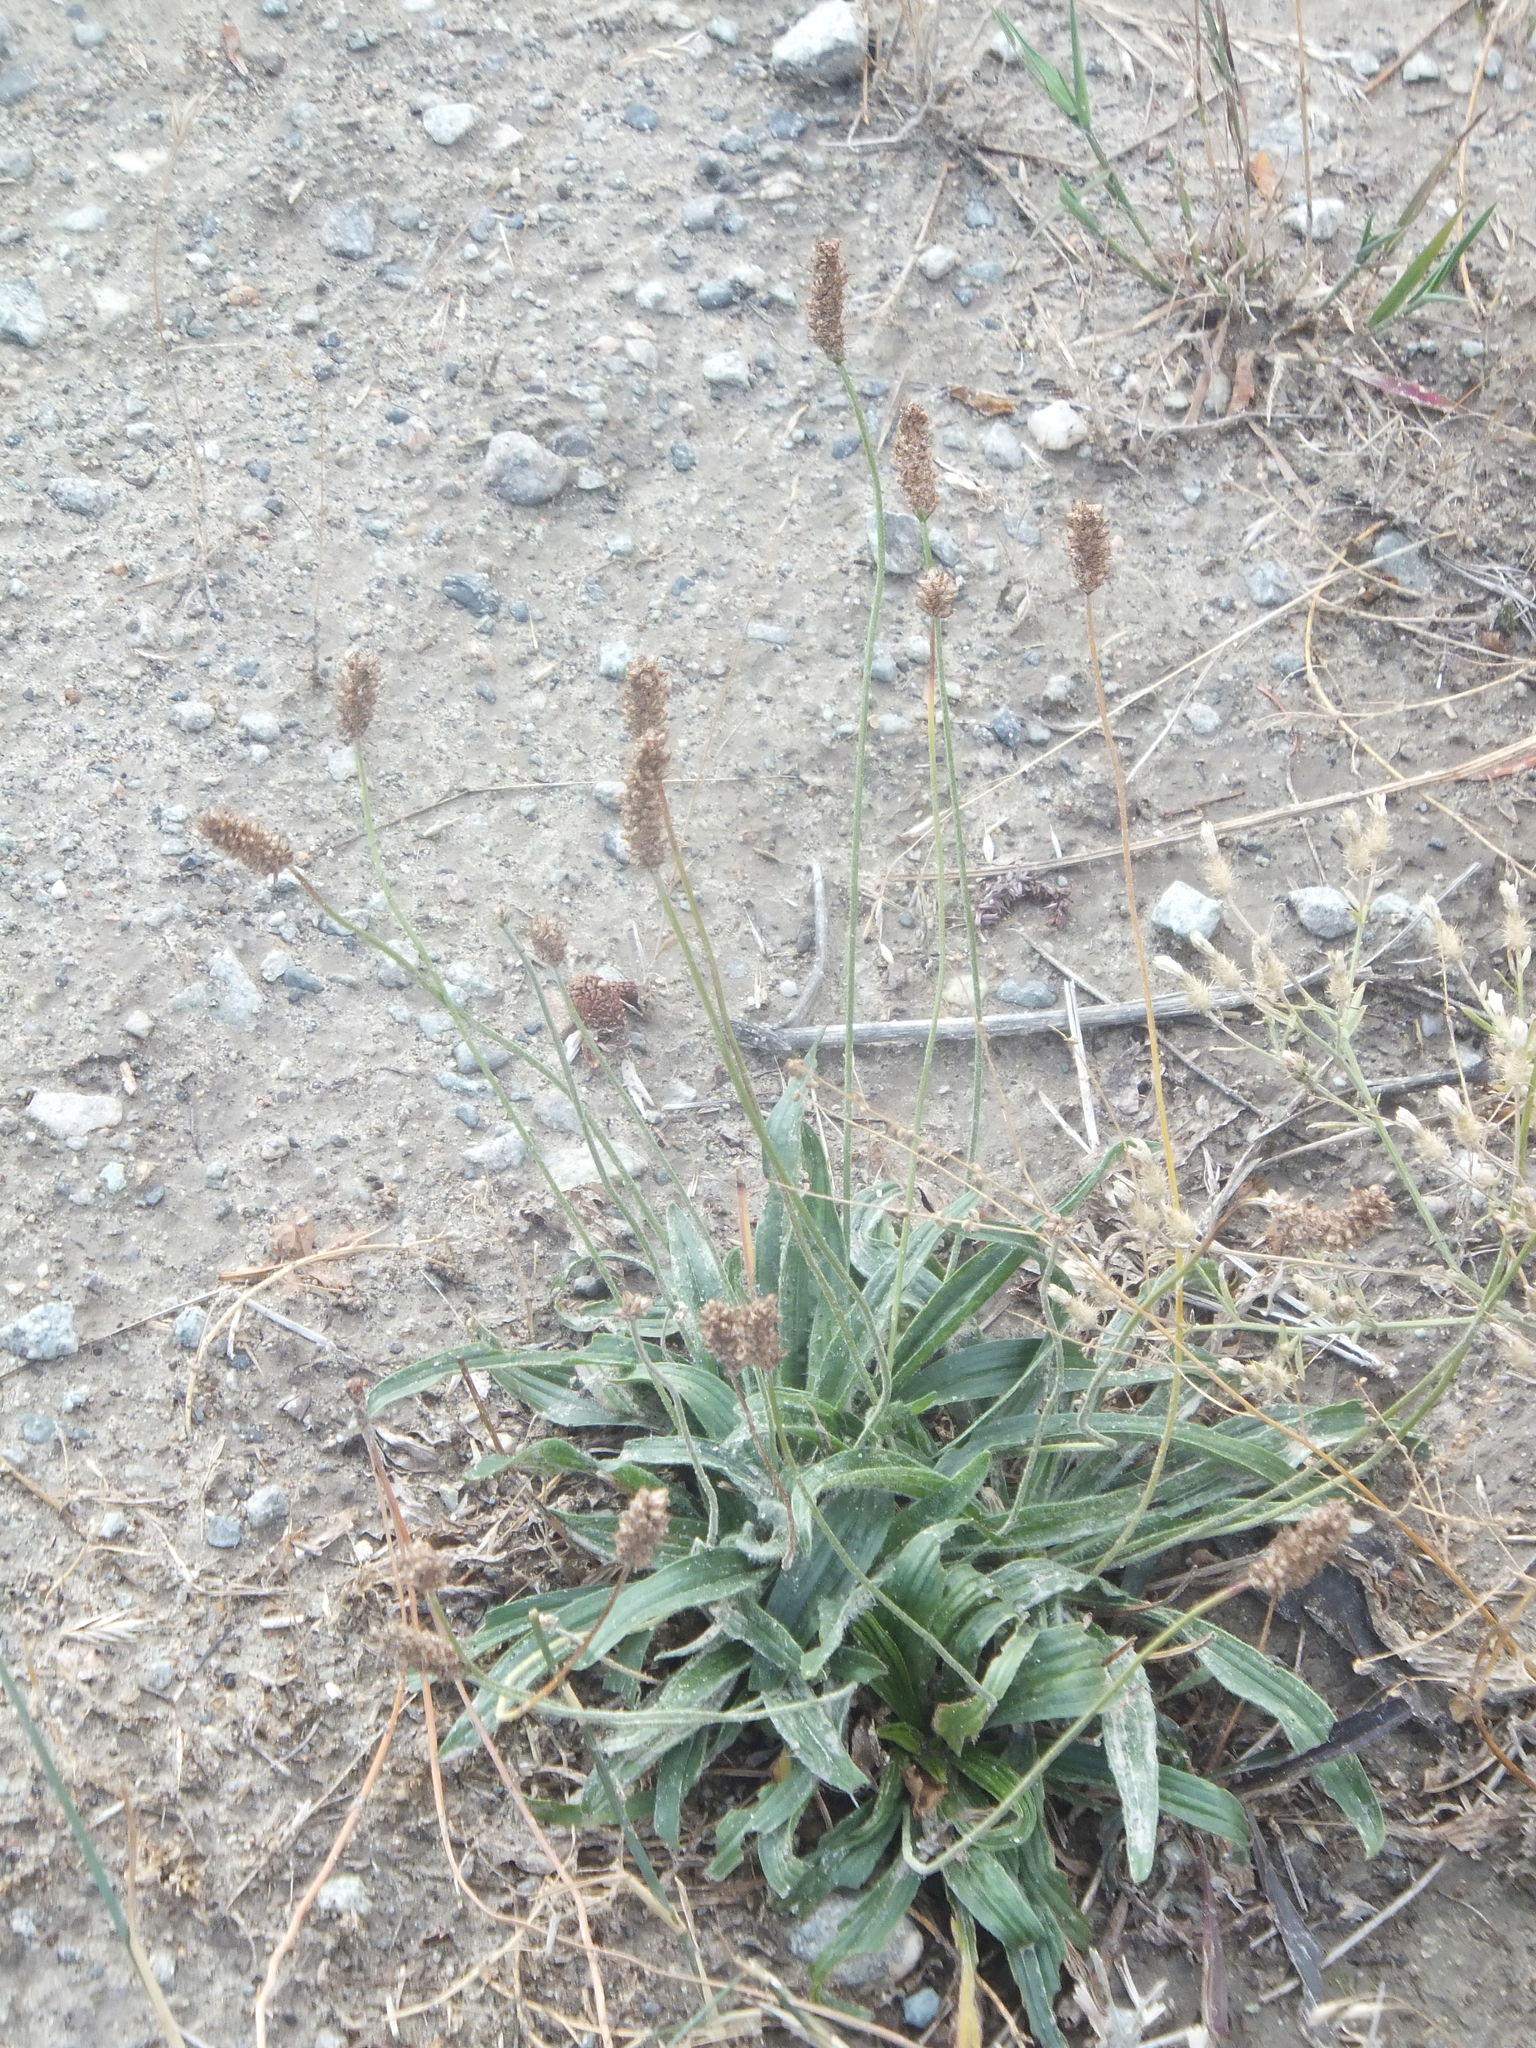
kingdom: Plantae
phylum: Tracheophyta
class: Magnoliopsida
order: Lamiales
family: Plantaginaceae
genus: Plantago
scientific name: Plantago lanceolata
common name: Ribwort plantain
